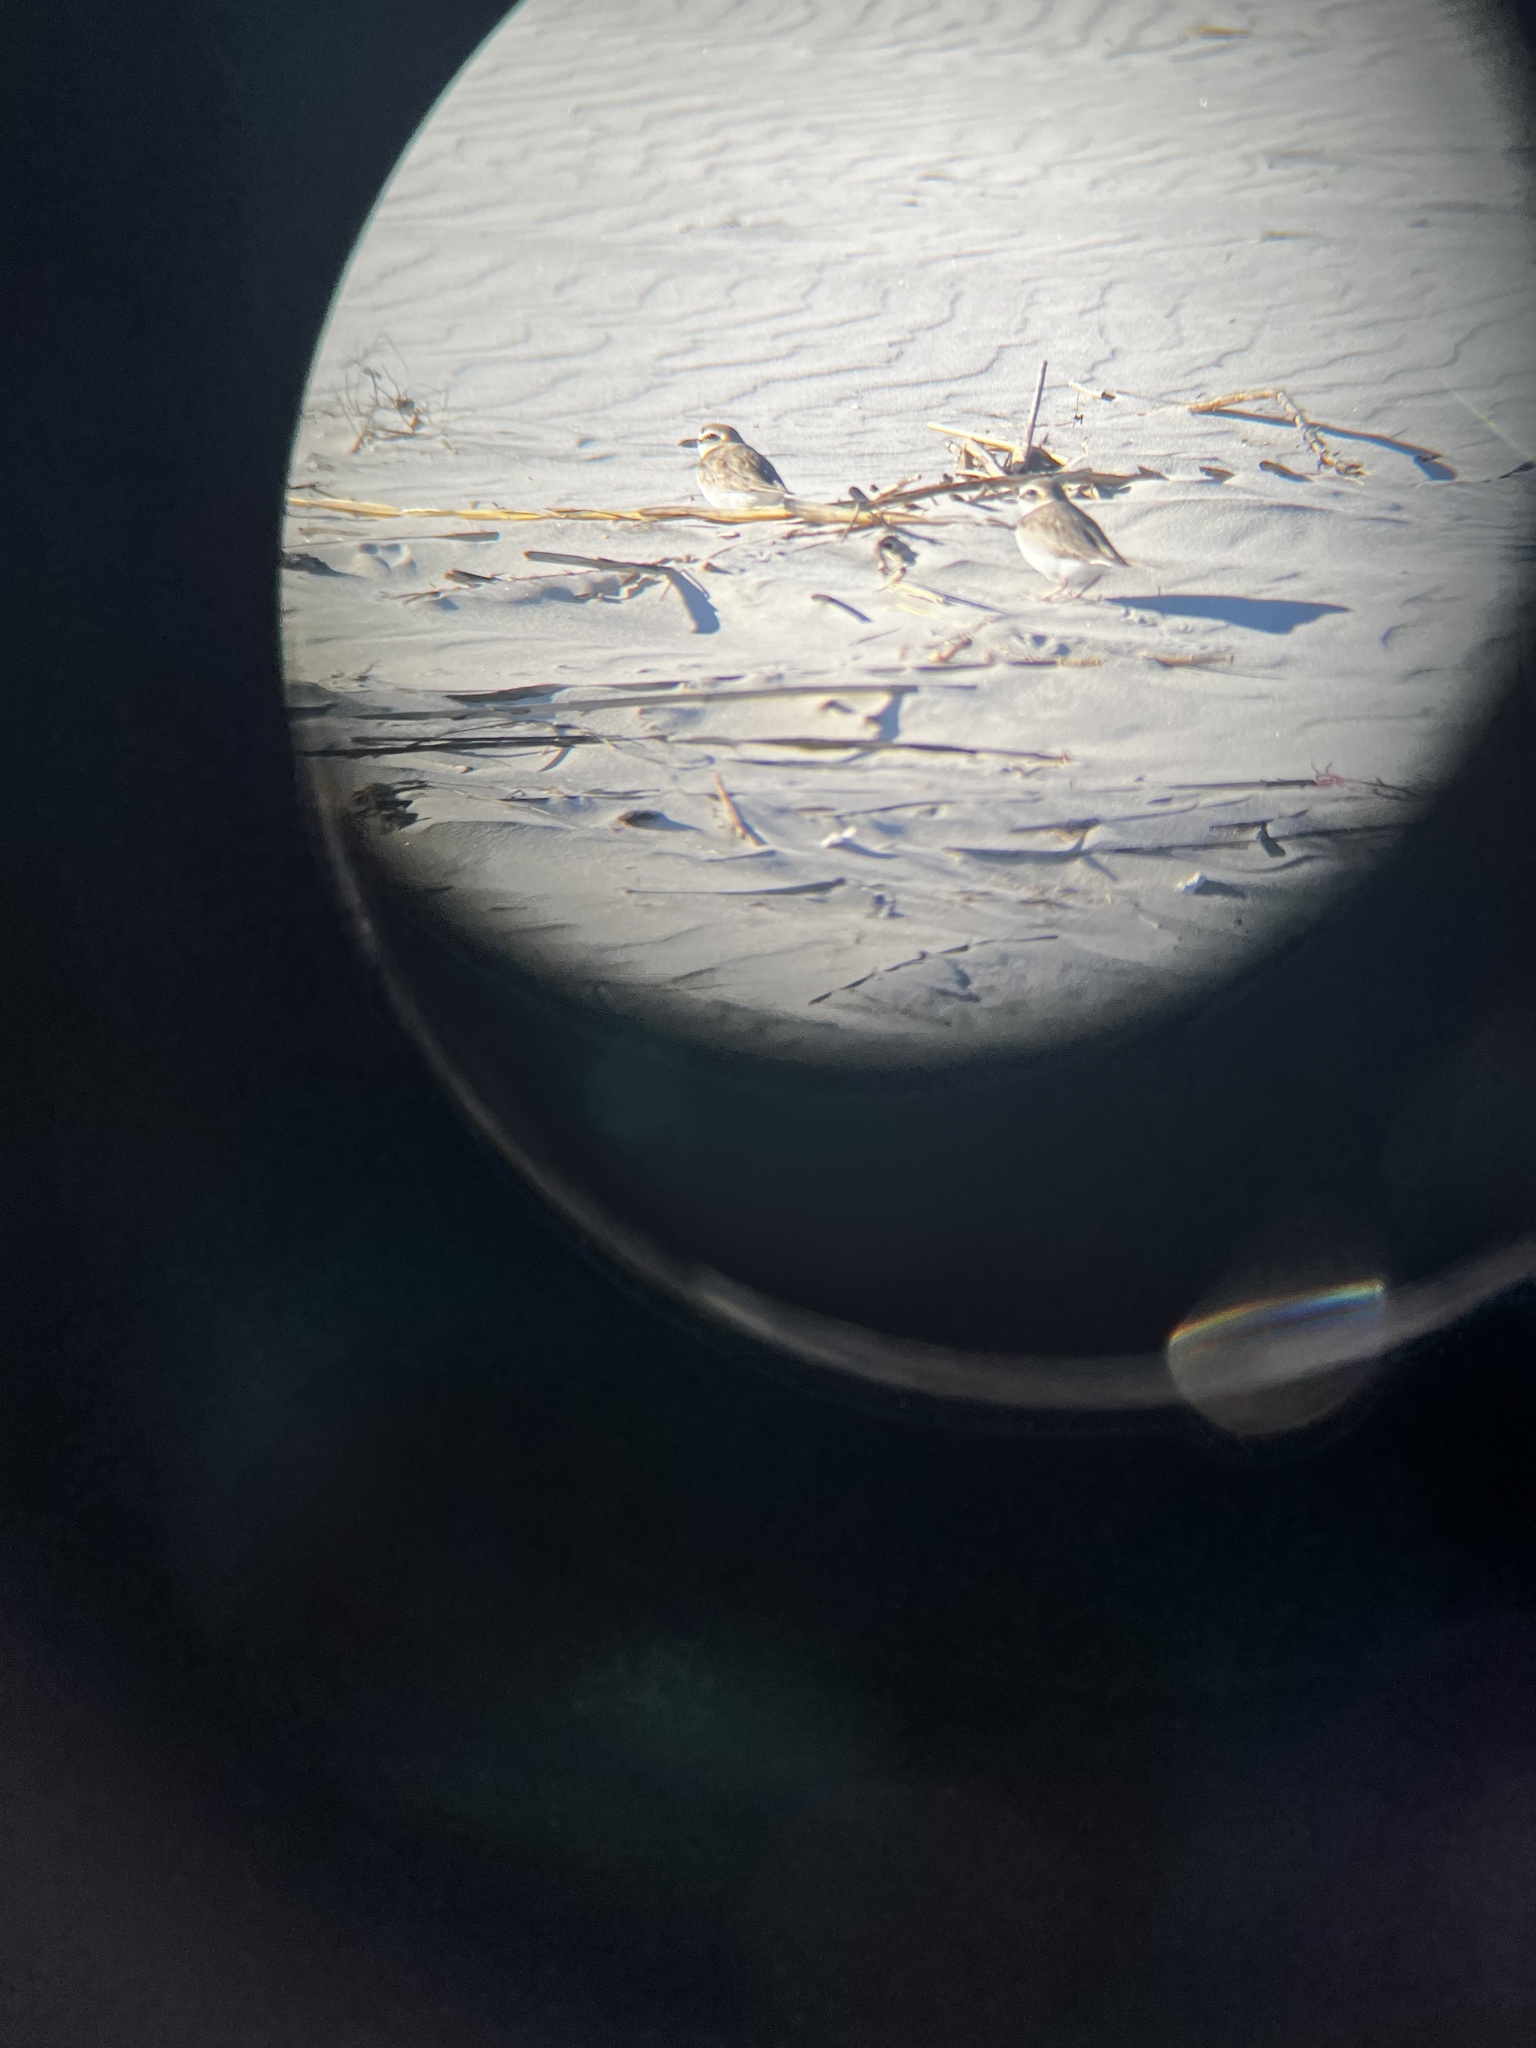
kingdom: Animalia
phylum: Chordata
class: Aves
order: Charadriiformes
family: Charadriidae
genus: Anarhynchus
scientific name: Anarhynchus
